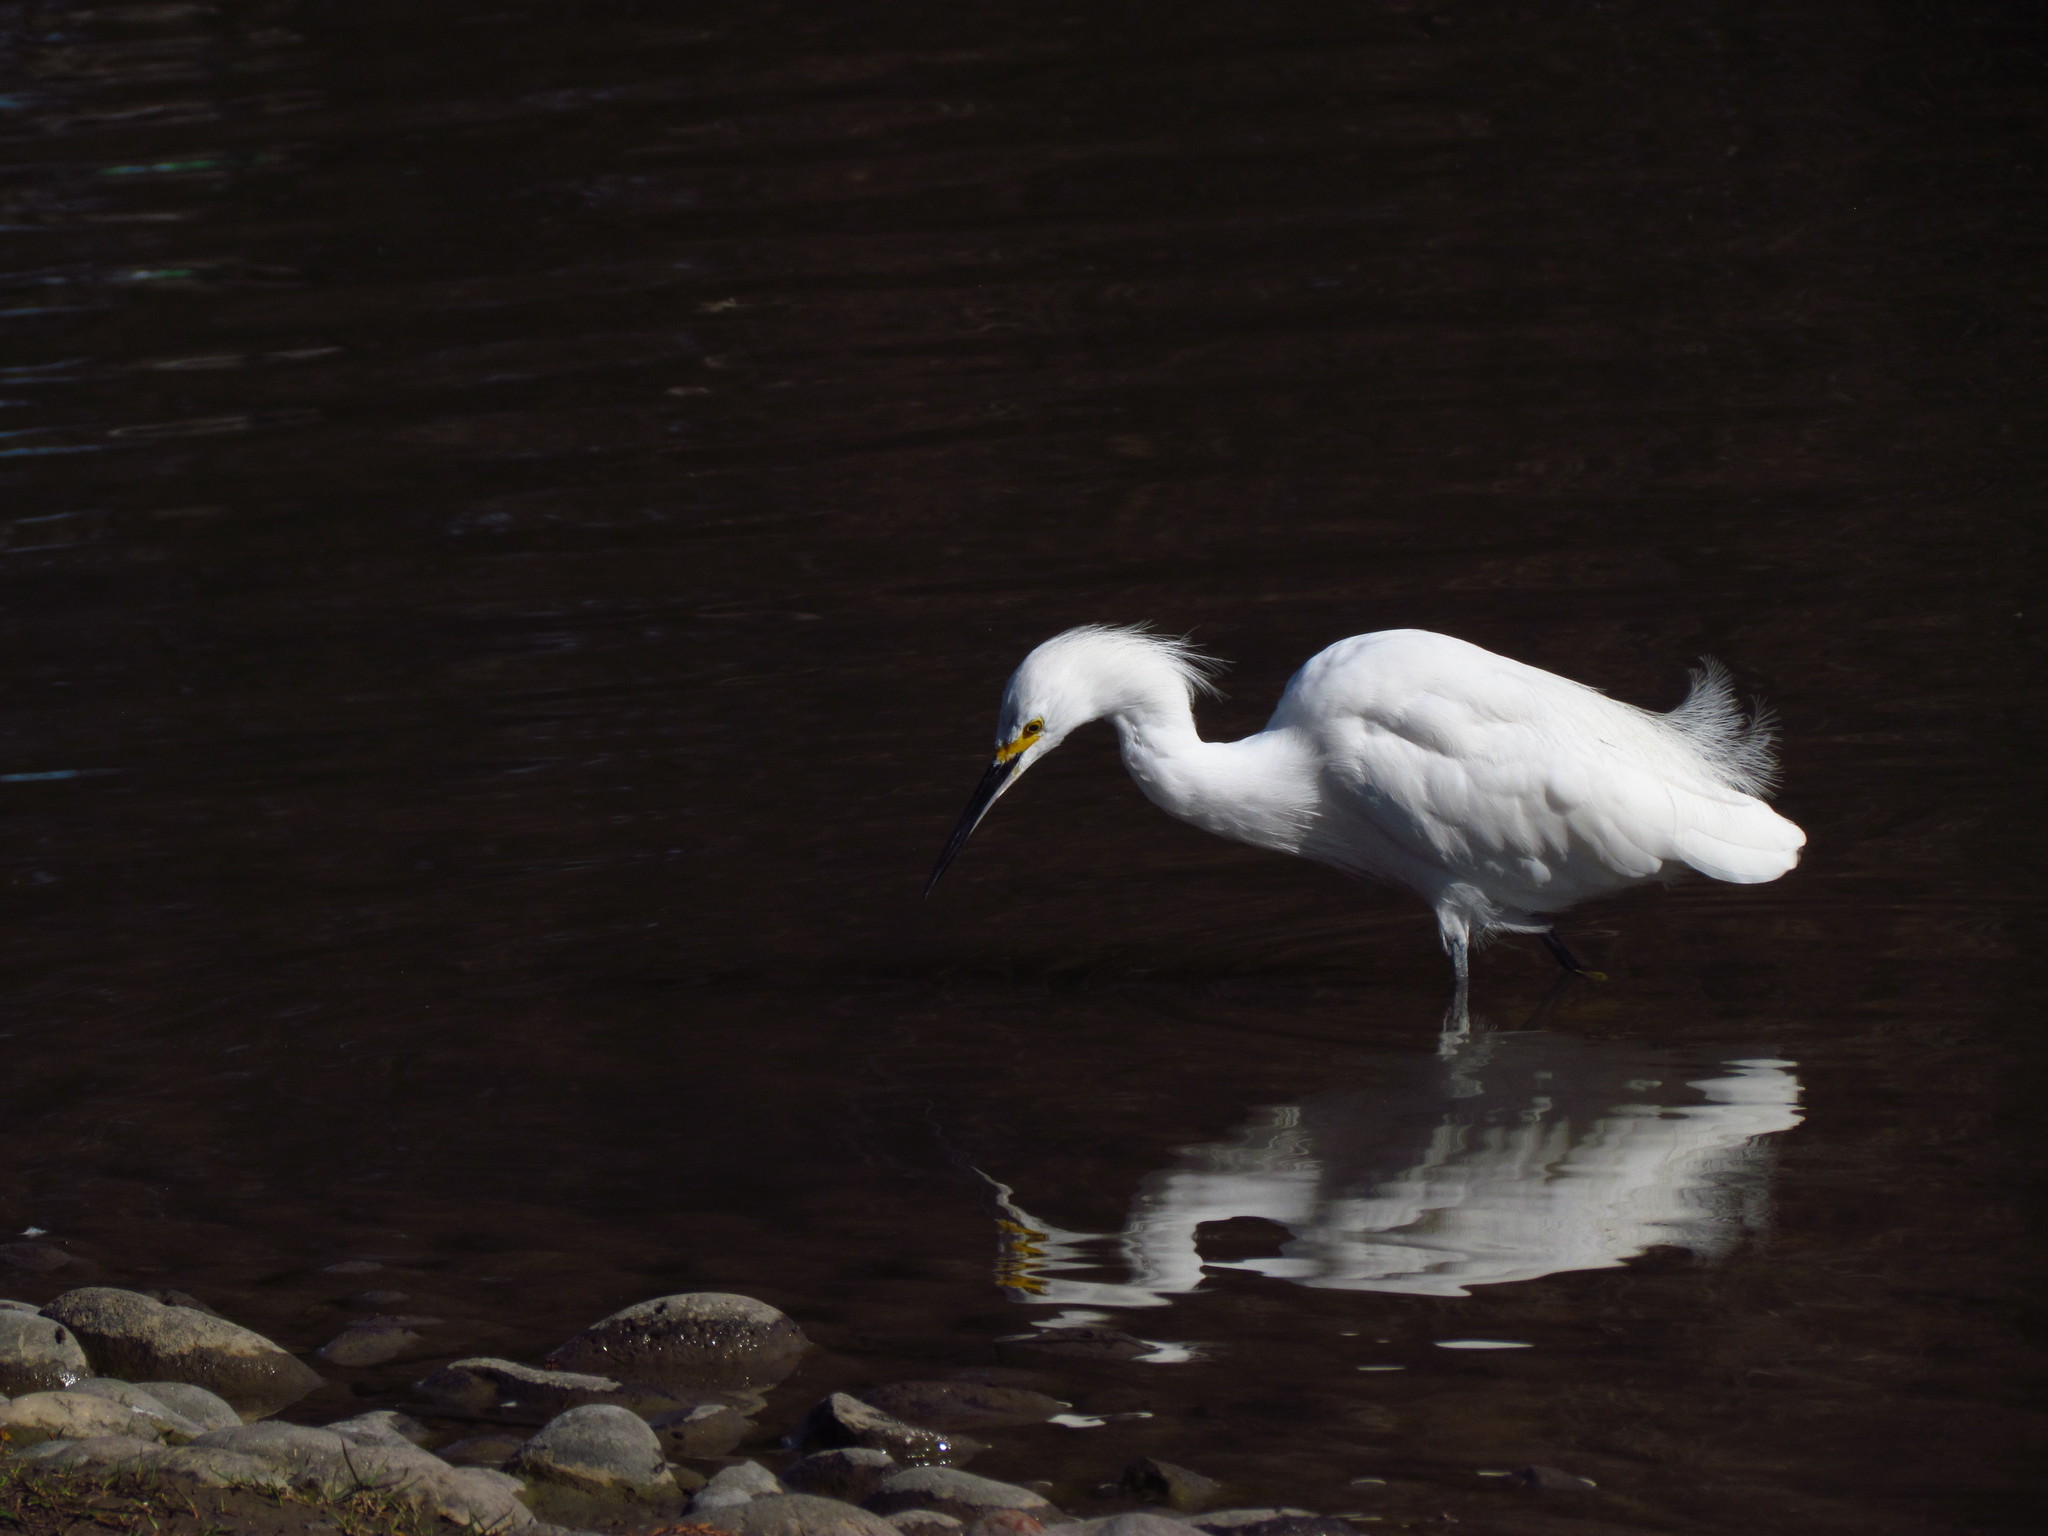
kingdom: Animalia
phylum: Chordata
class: Aves
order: Pelecaniformes
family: Ardeidae
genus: Egretta
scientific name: Egretta thula
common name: Snowy egret
